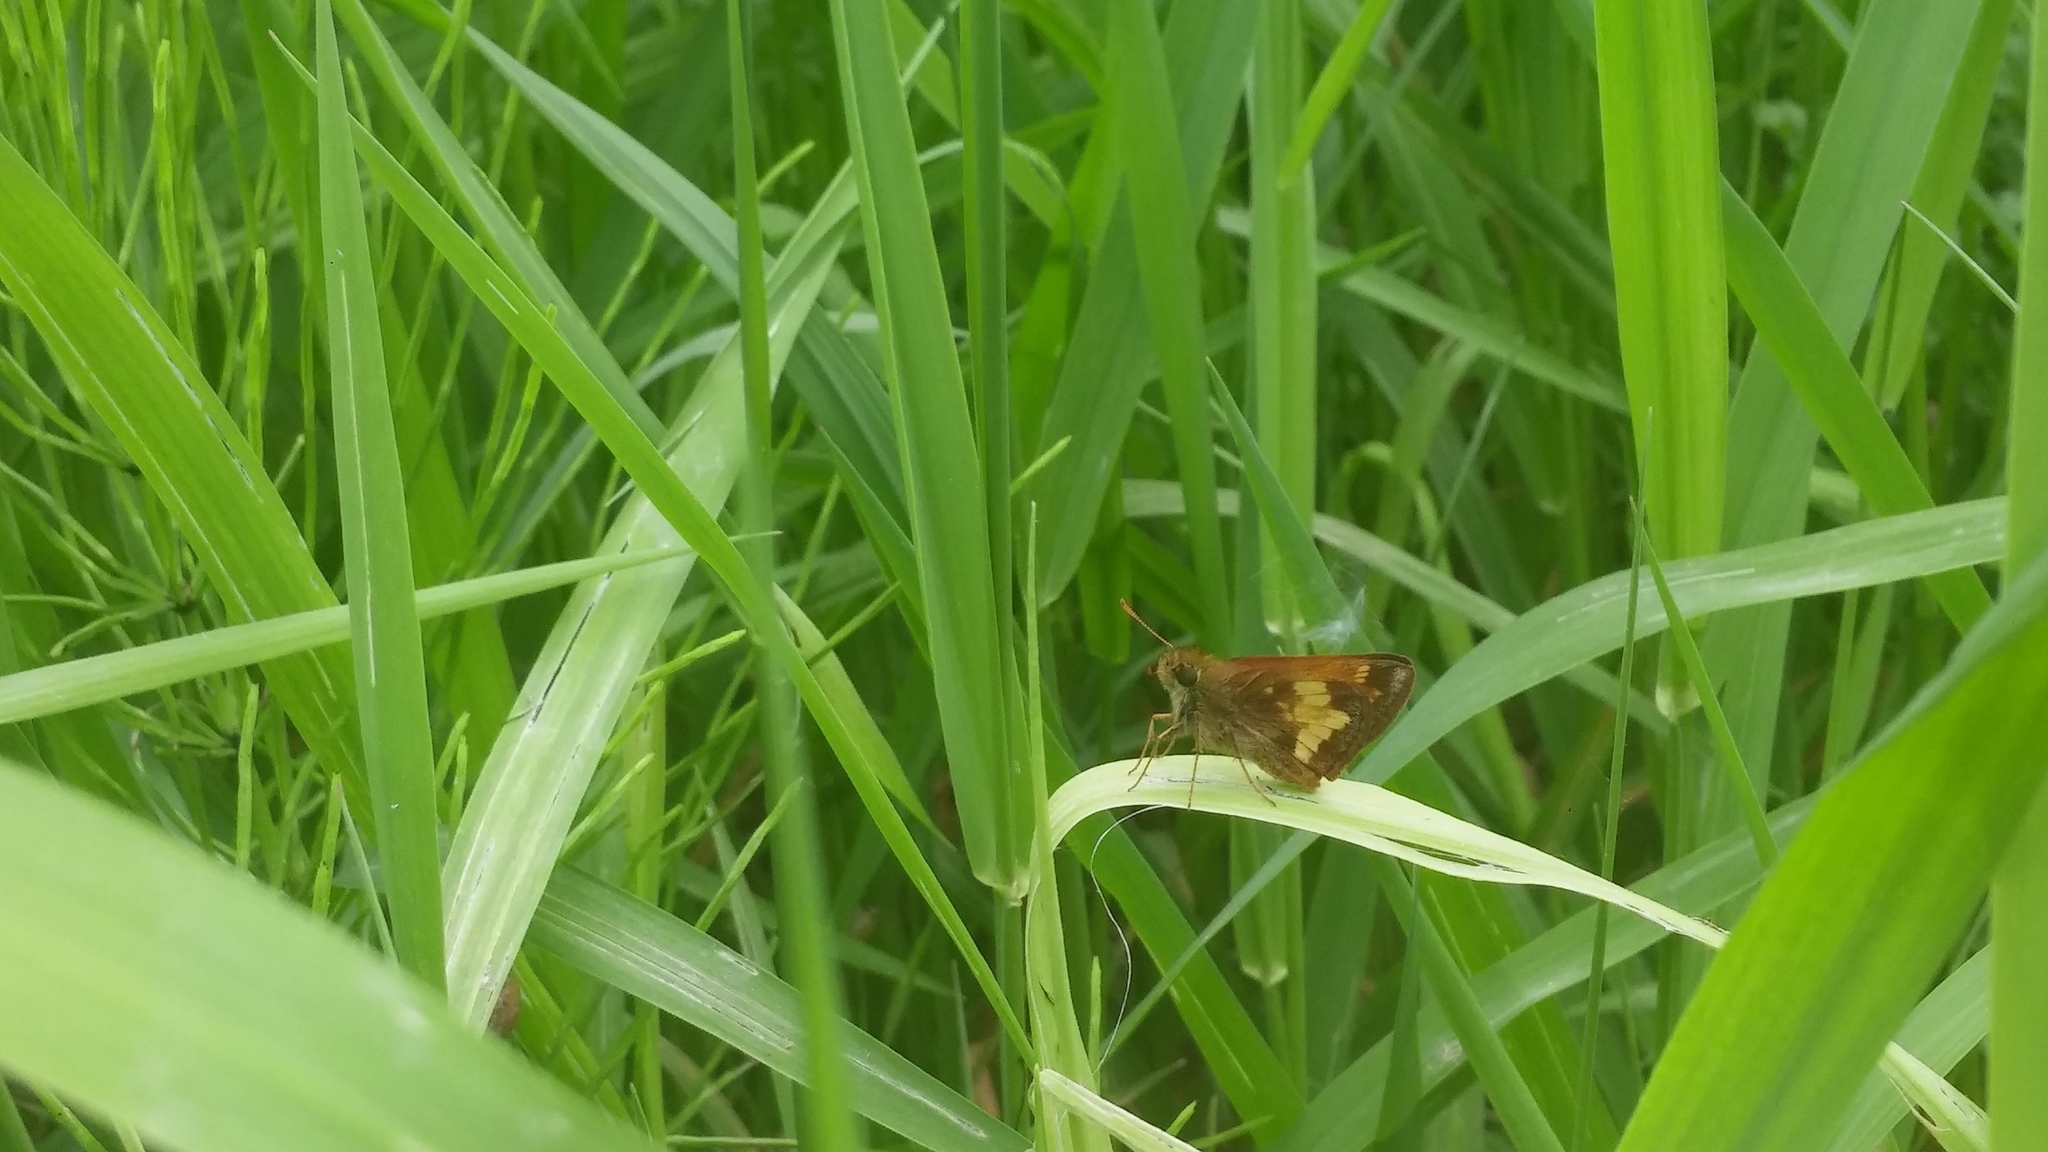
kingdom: Animalia
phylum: Arthropoda
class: Insecta
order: Lepidoptera
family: Hesperiidae
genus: Lon
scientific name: Lon hobomok
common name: Hobomok skipper
